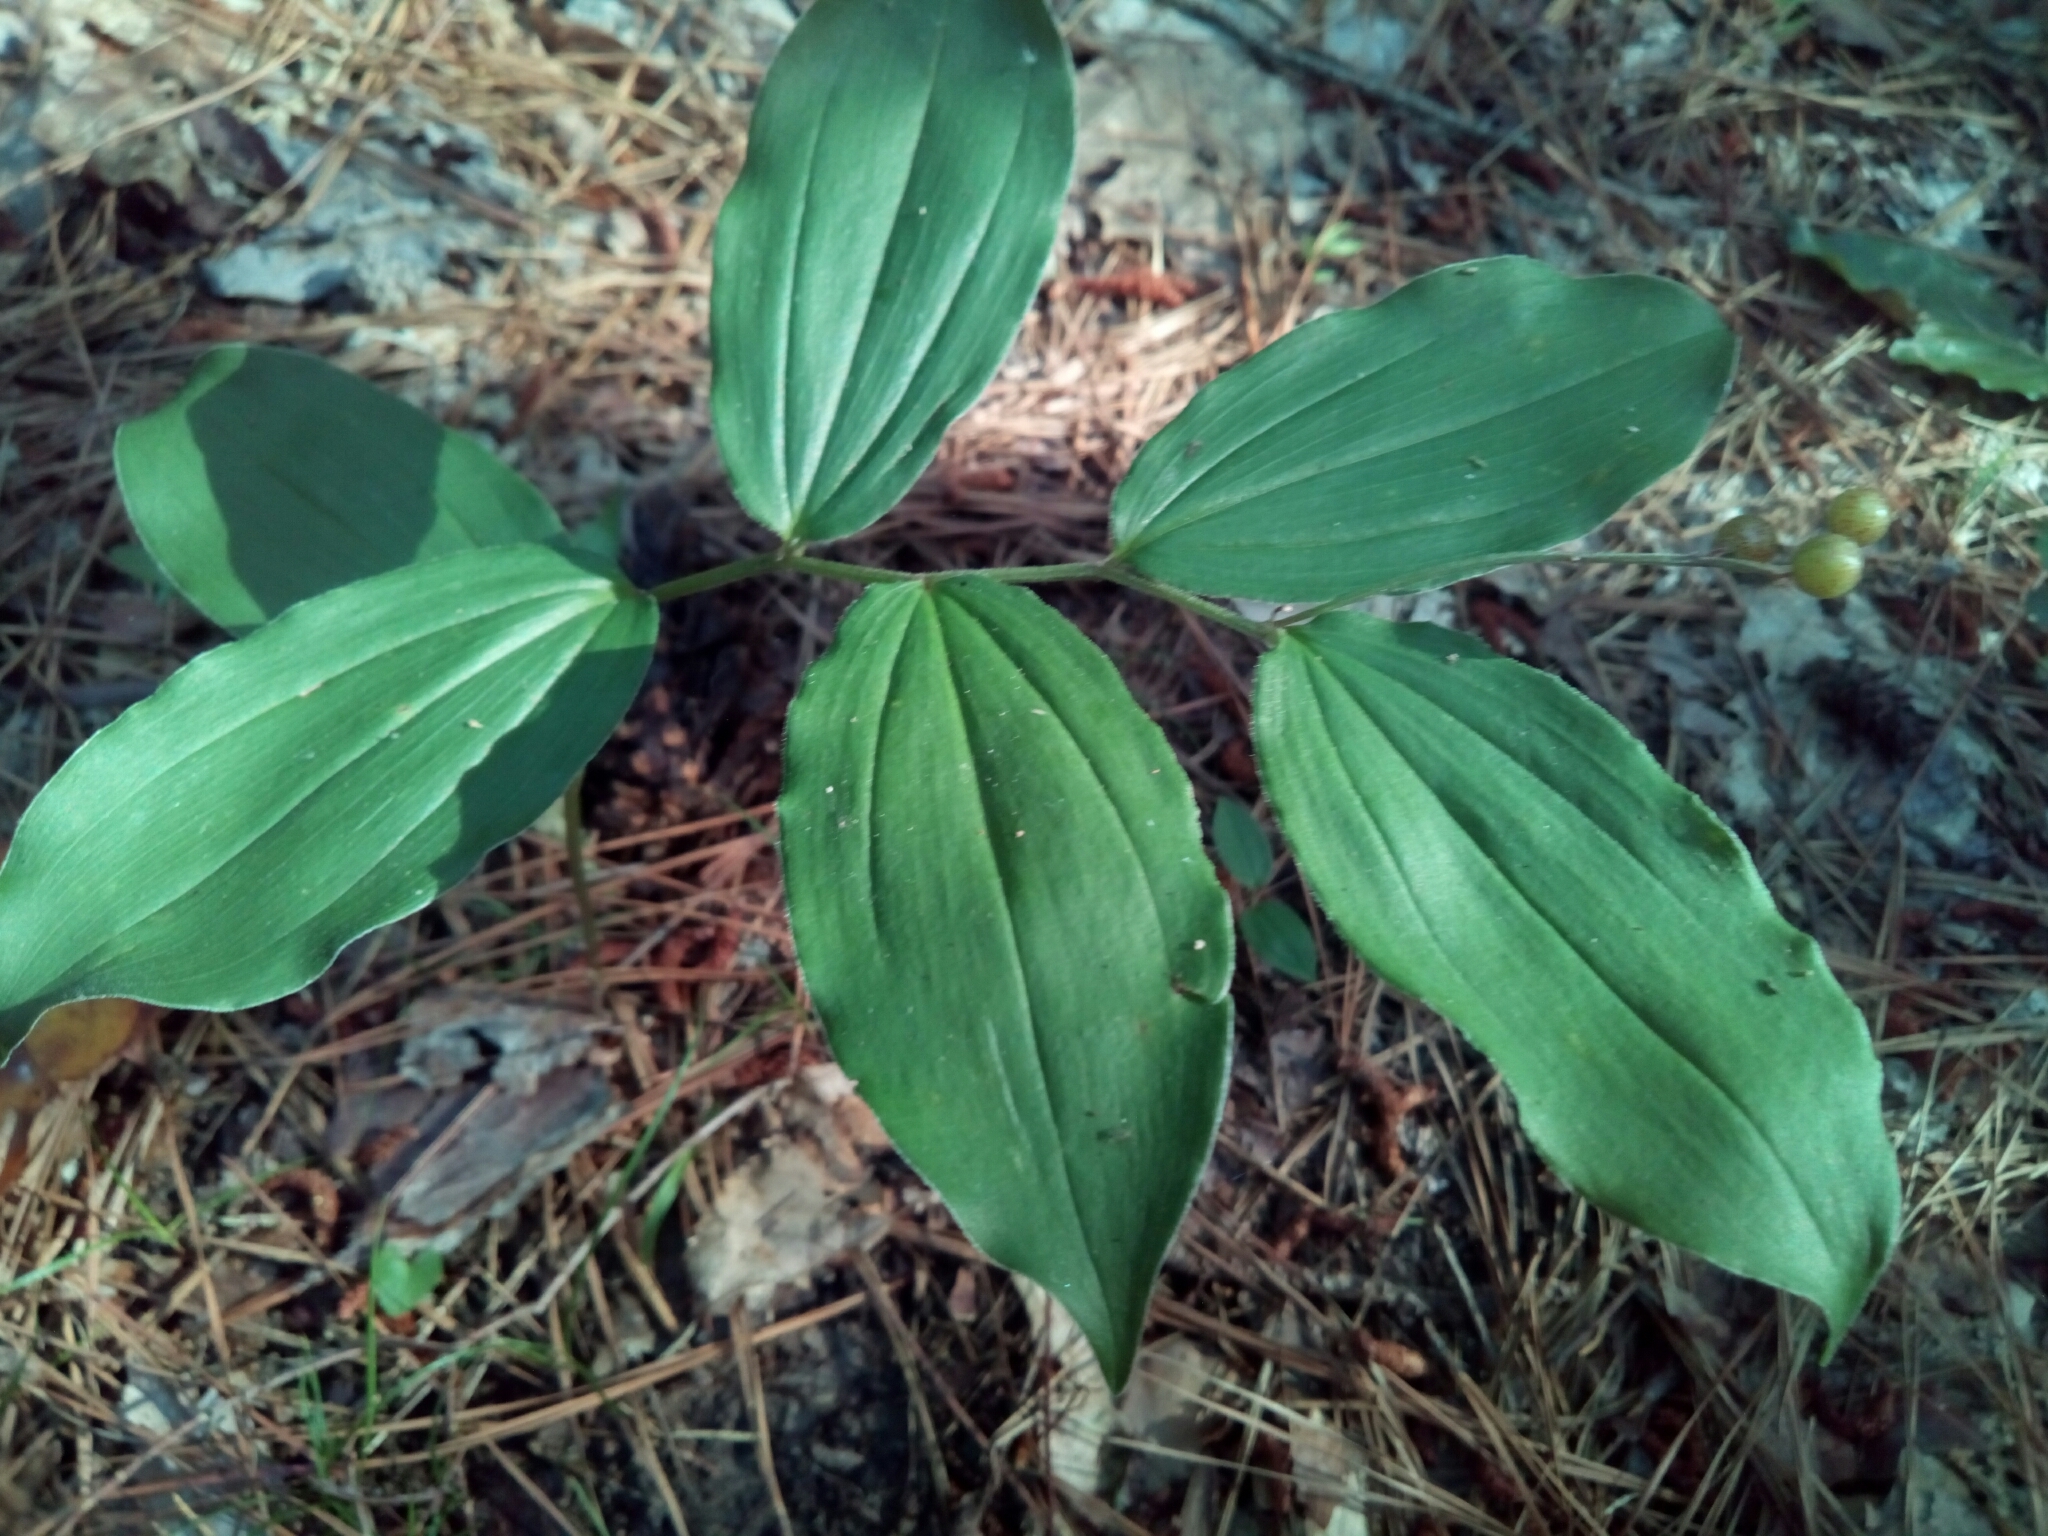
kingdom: Plantae
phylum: Tracheophyta
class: Liliopsida
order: Asparagales
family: Asparagaceae
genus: Maianthemum
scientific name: Maianthemum racemosum
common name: False spikenard
